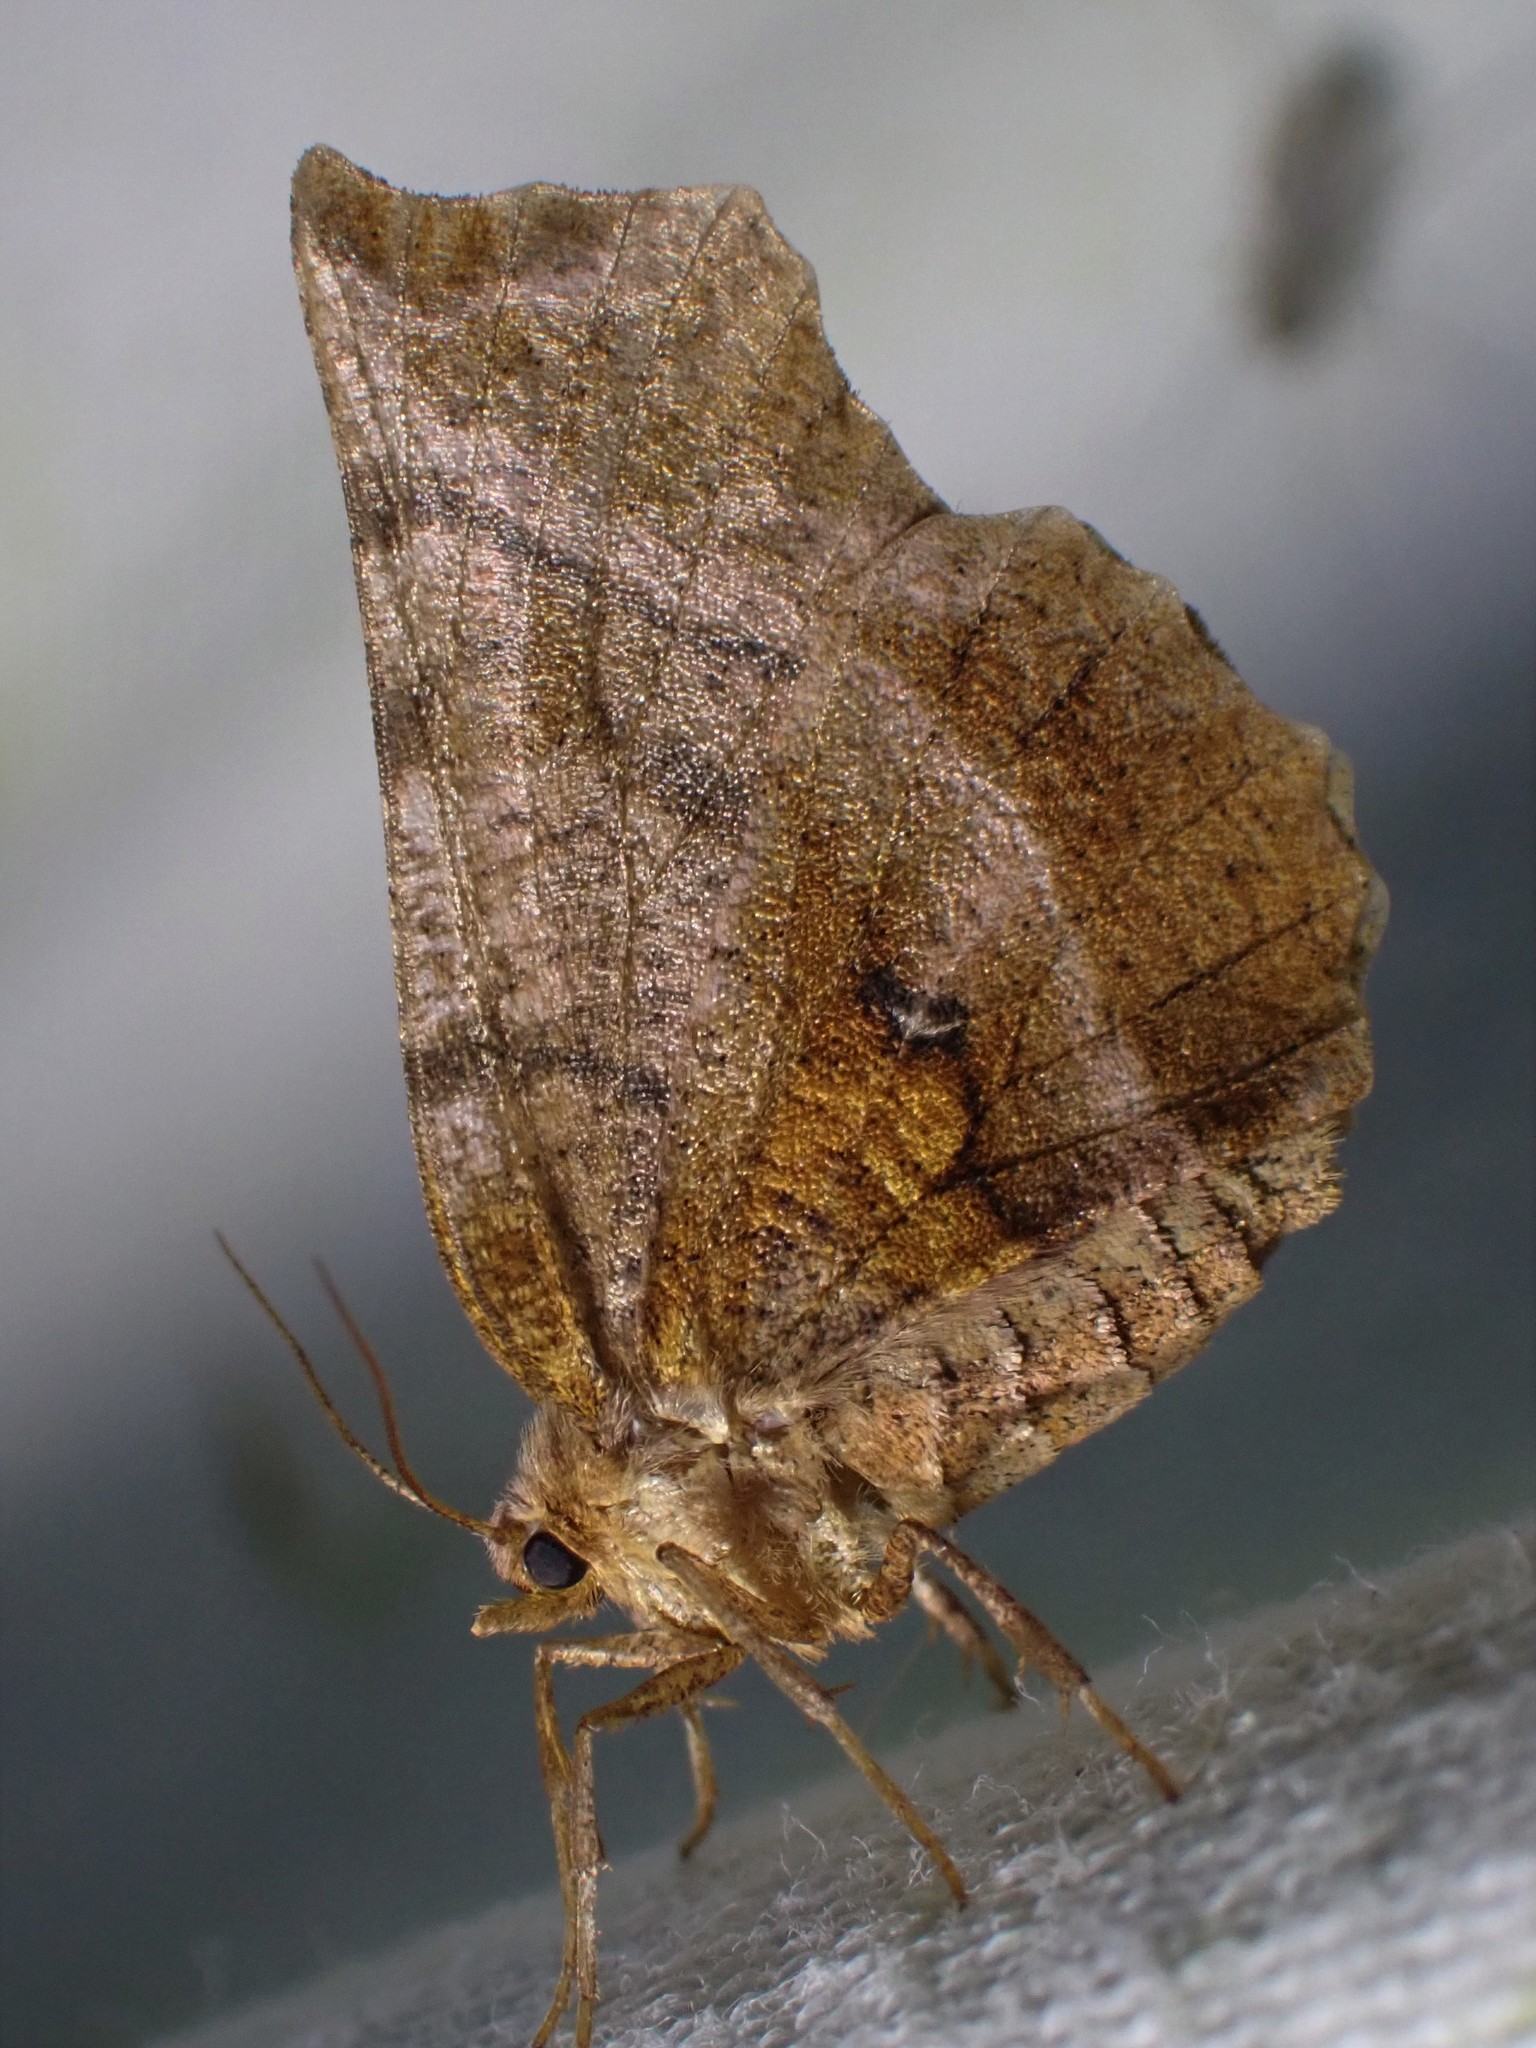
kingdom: Animalia
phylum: Arthropoda
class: Insecta
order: Lepidoptera
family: Geometridae
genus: Selenia
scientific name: Selenia dentaria
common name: Early thorn
